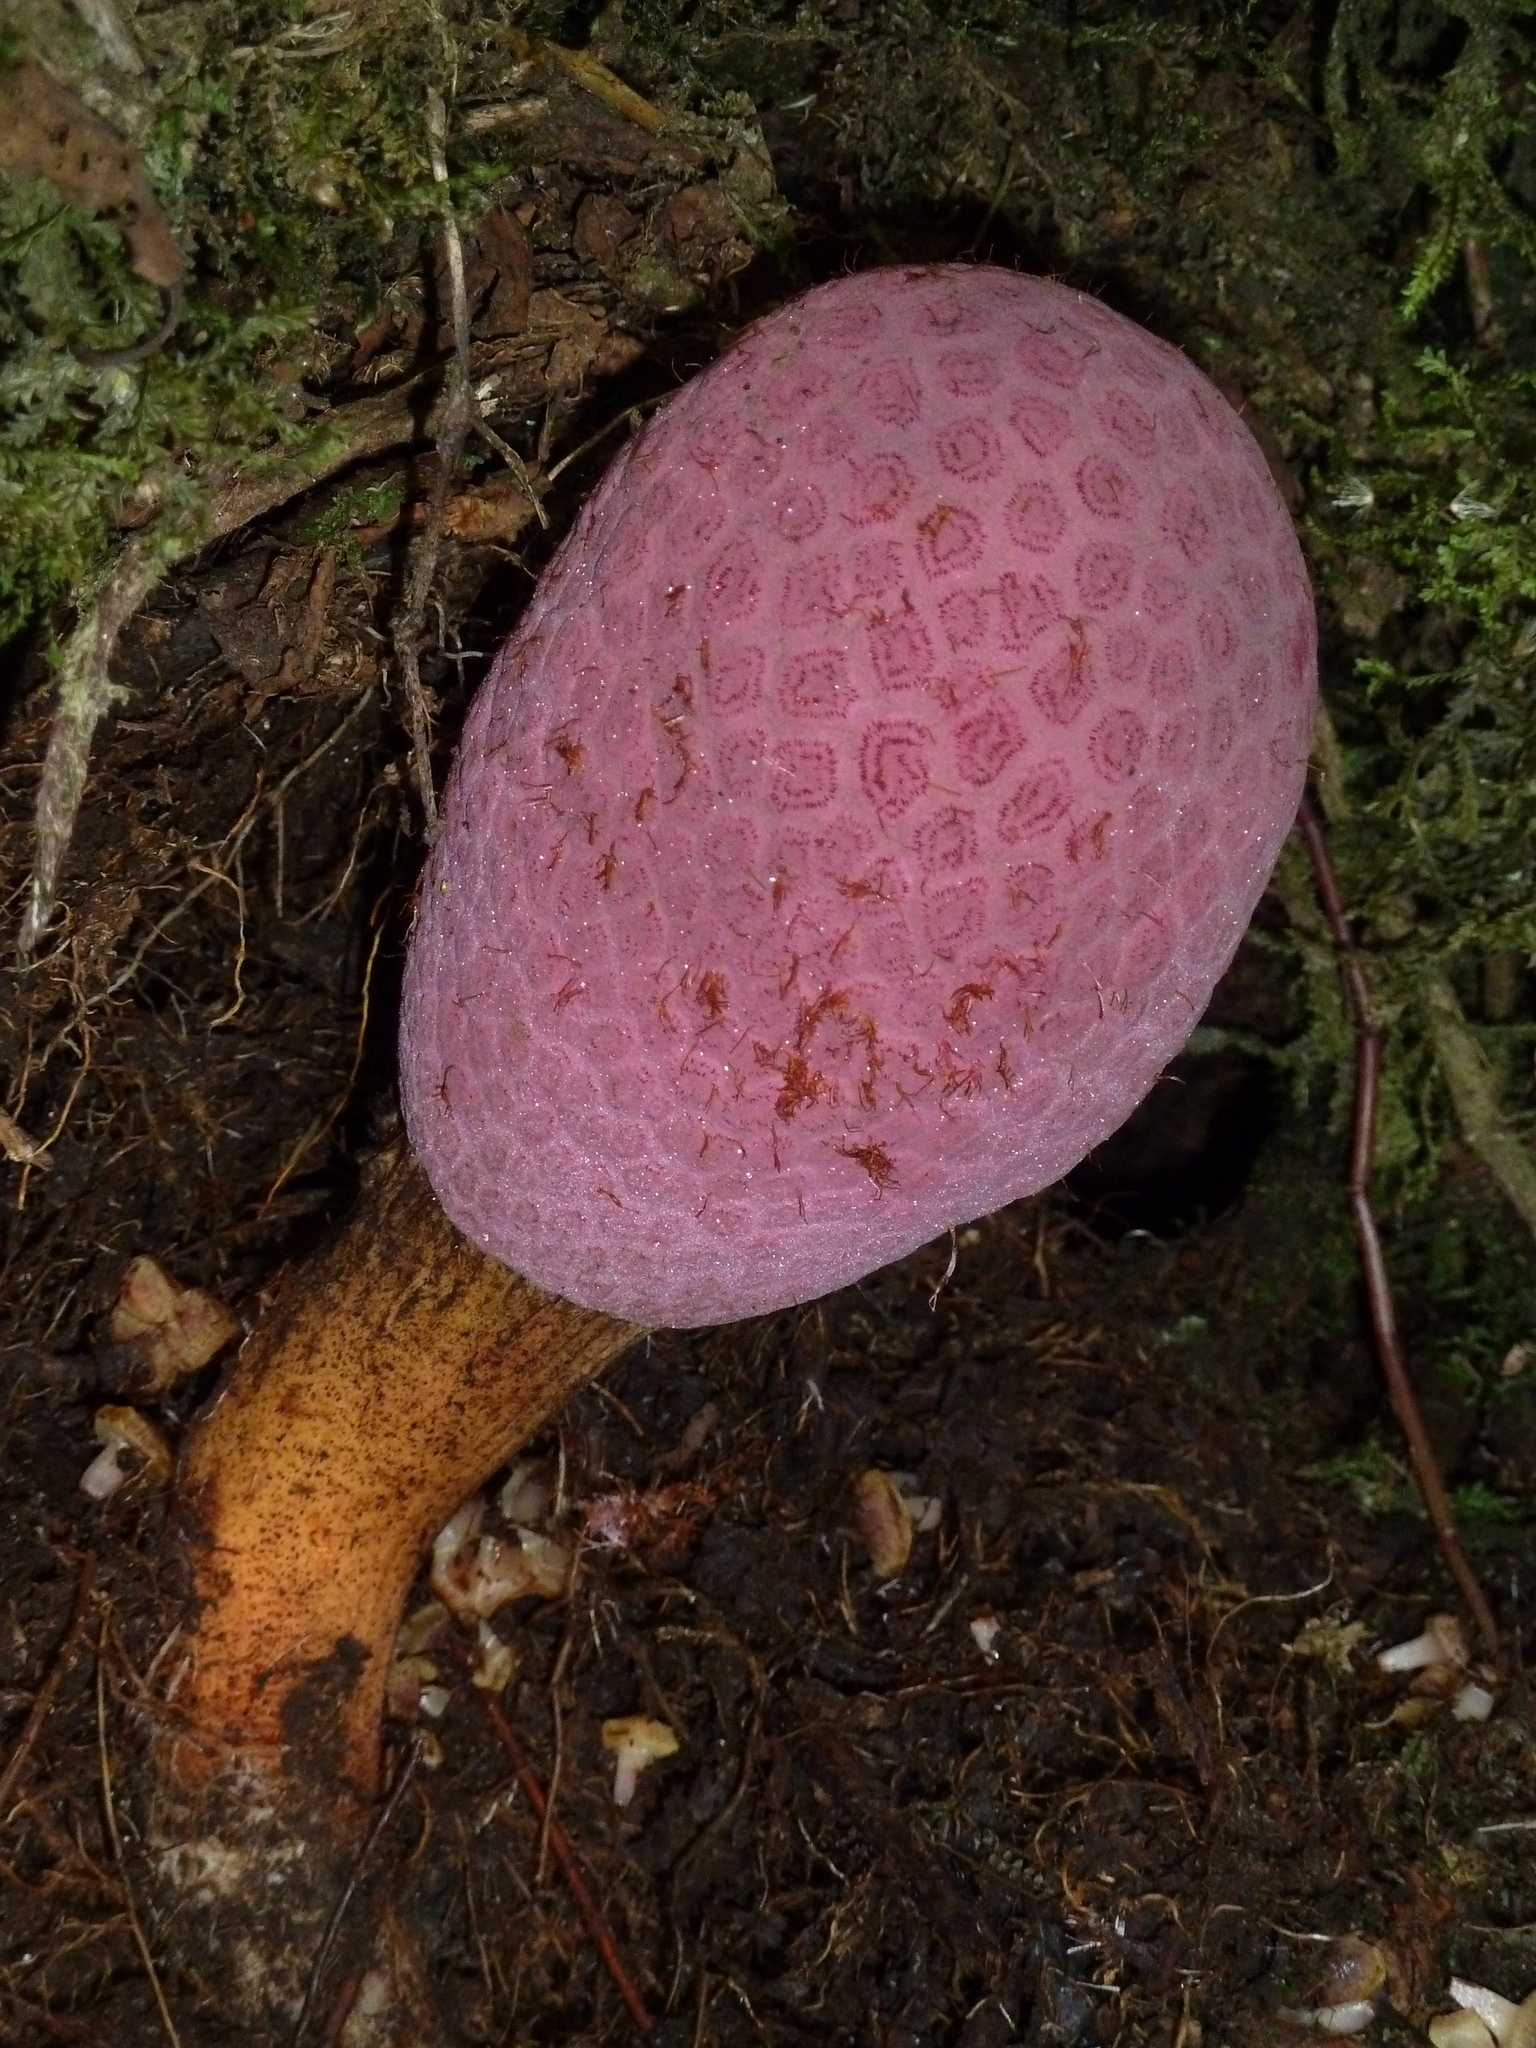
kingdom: Plantae
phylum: Tracheophyta
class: Magnoliopsida
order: Santalales
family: Balanophoraceae
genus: Corynaea
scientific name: Corynaea crassa
